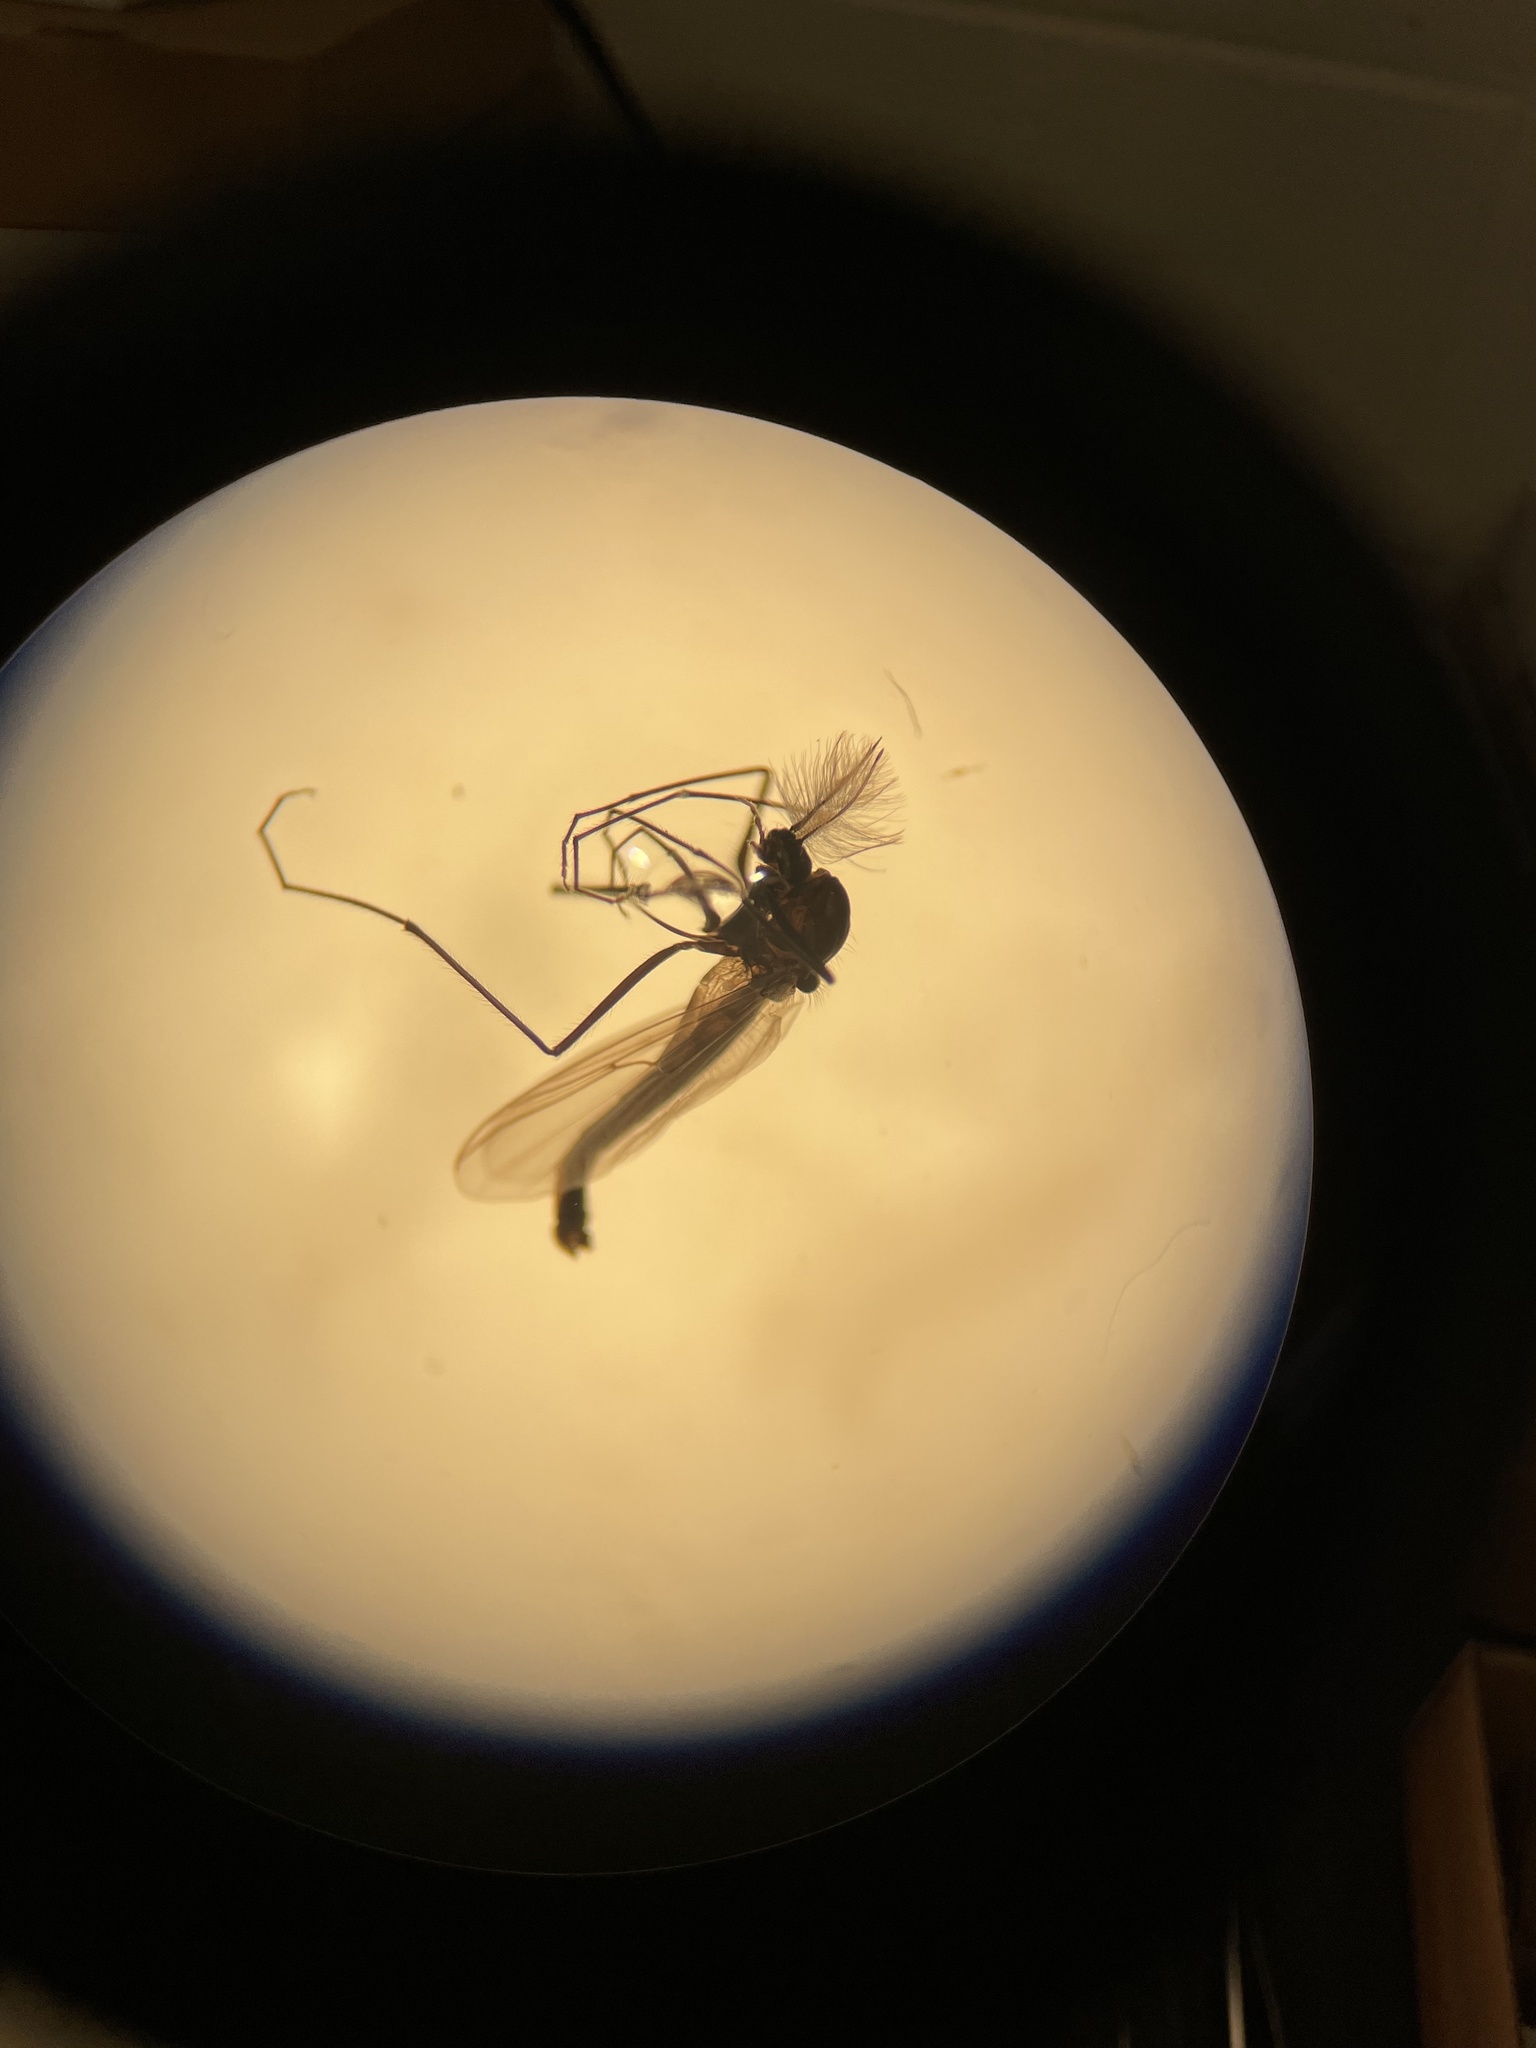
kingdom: Animalia
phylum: Arthropoda
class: Insecta
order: Diptera
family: Chironomidae
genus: Diamesa
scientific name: Diamesa nivoriunda
